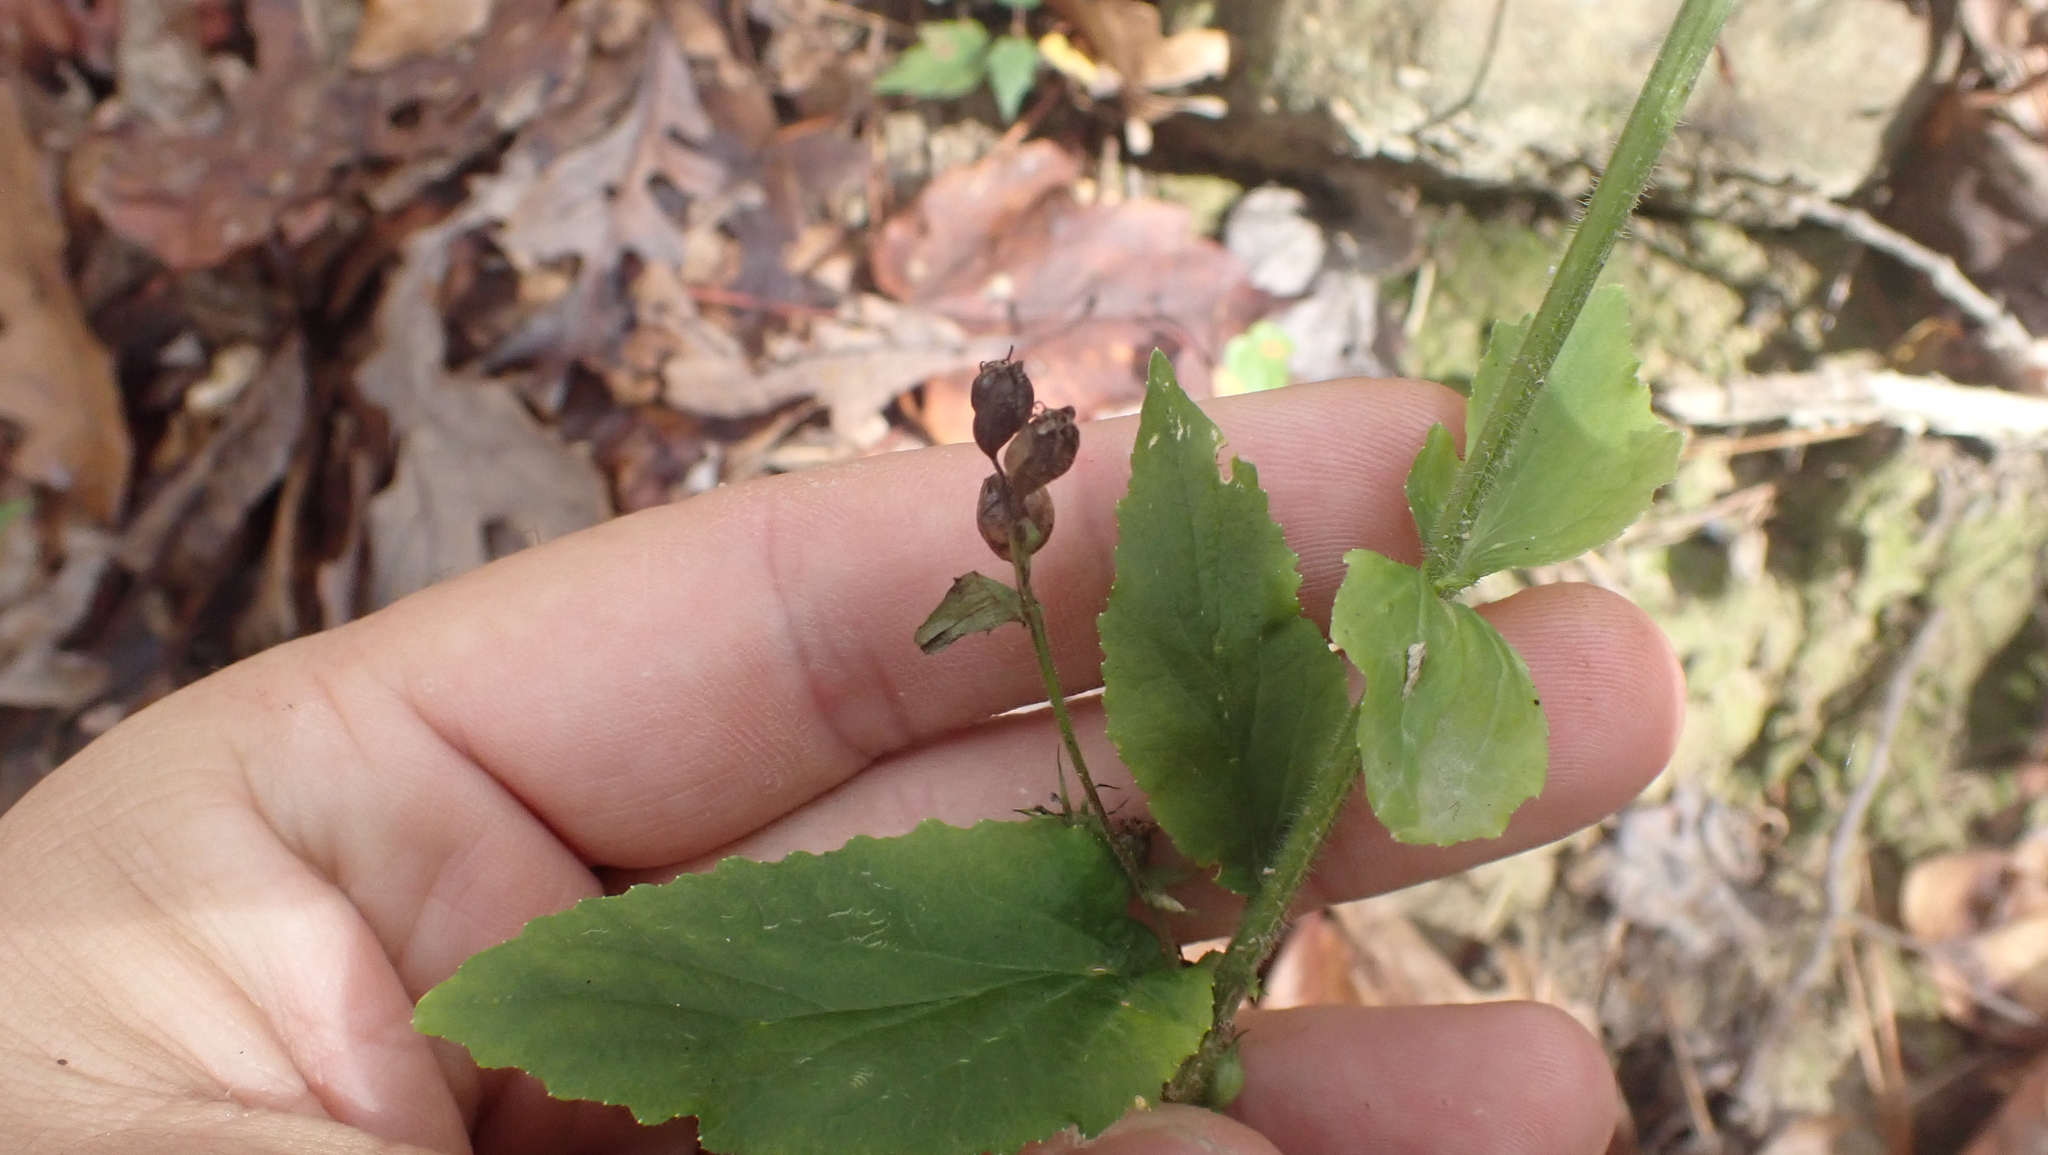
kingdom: Plantae
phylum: Tracheophyta
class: Magnoliopsida
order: Asterales
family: Campanulaceae
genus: Lobelia
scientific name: Lobelia inflata
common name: Indian tobacco
